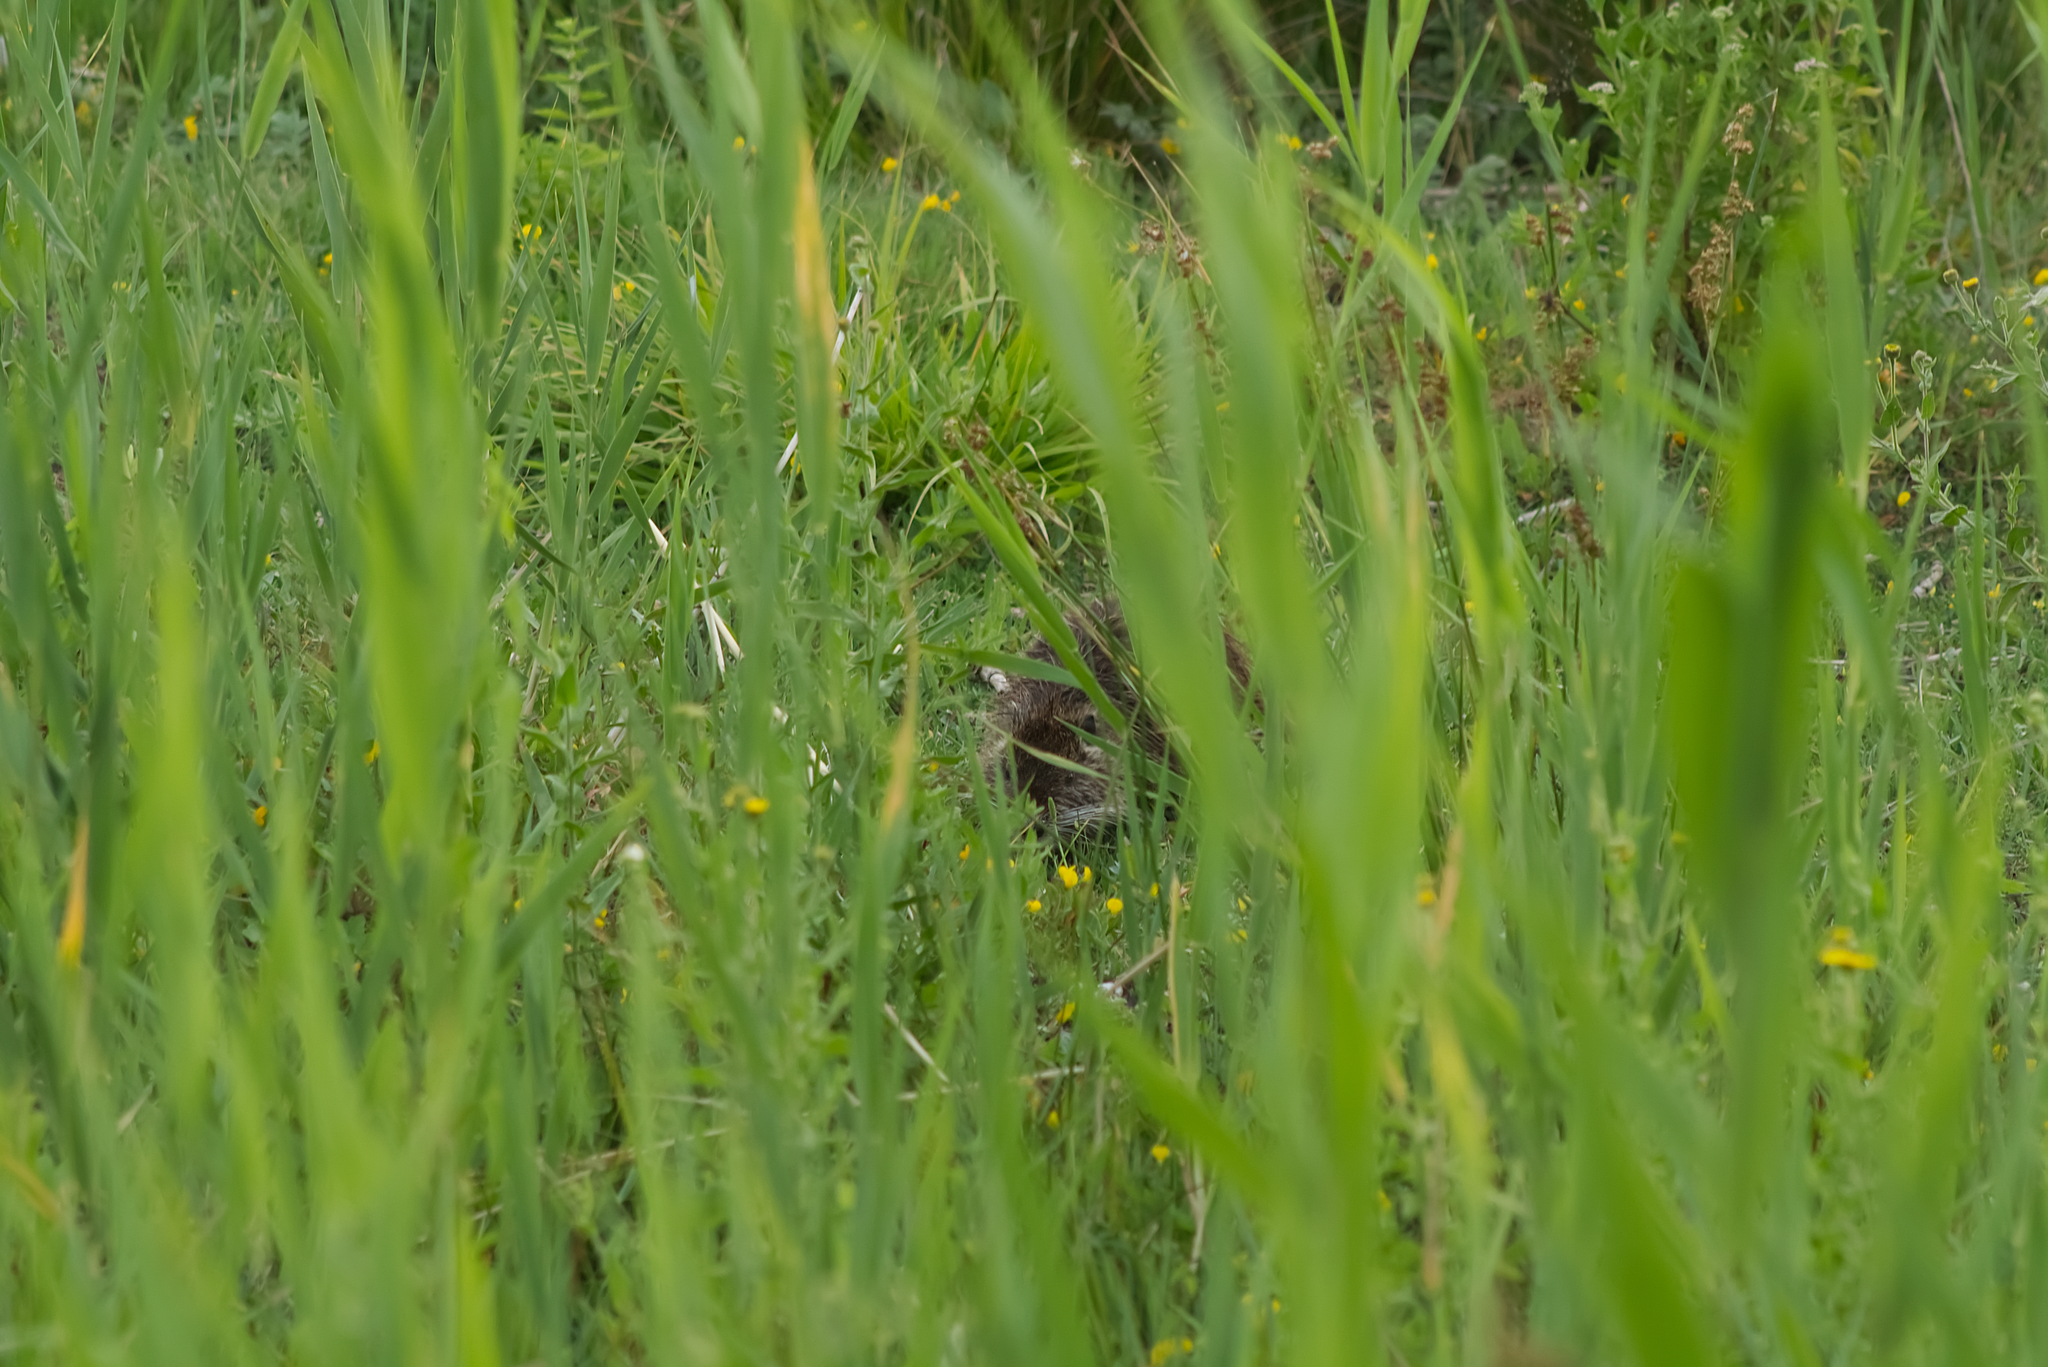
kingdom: Animalia
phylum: Chordata
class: Mammalia
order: Rodentia
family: Myocastoridae
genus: Myocastor
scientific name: Myocastor coypus
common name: Coypu
